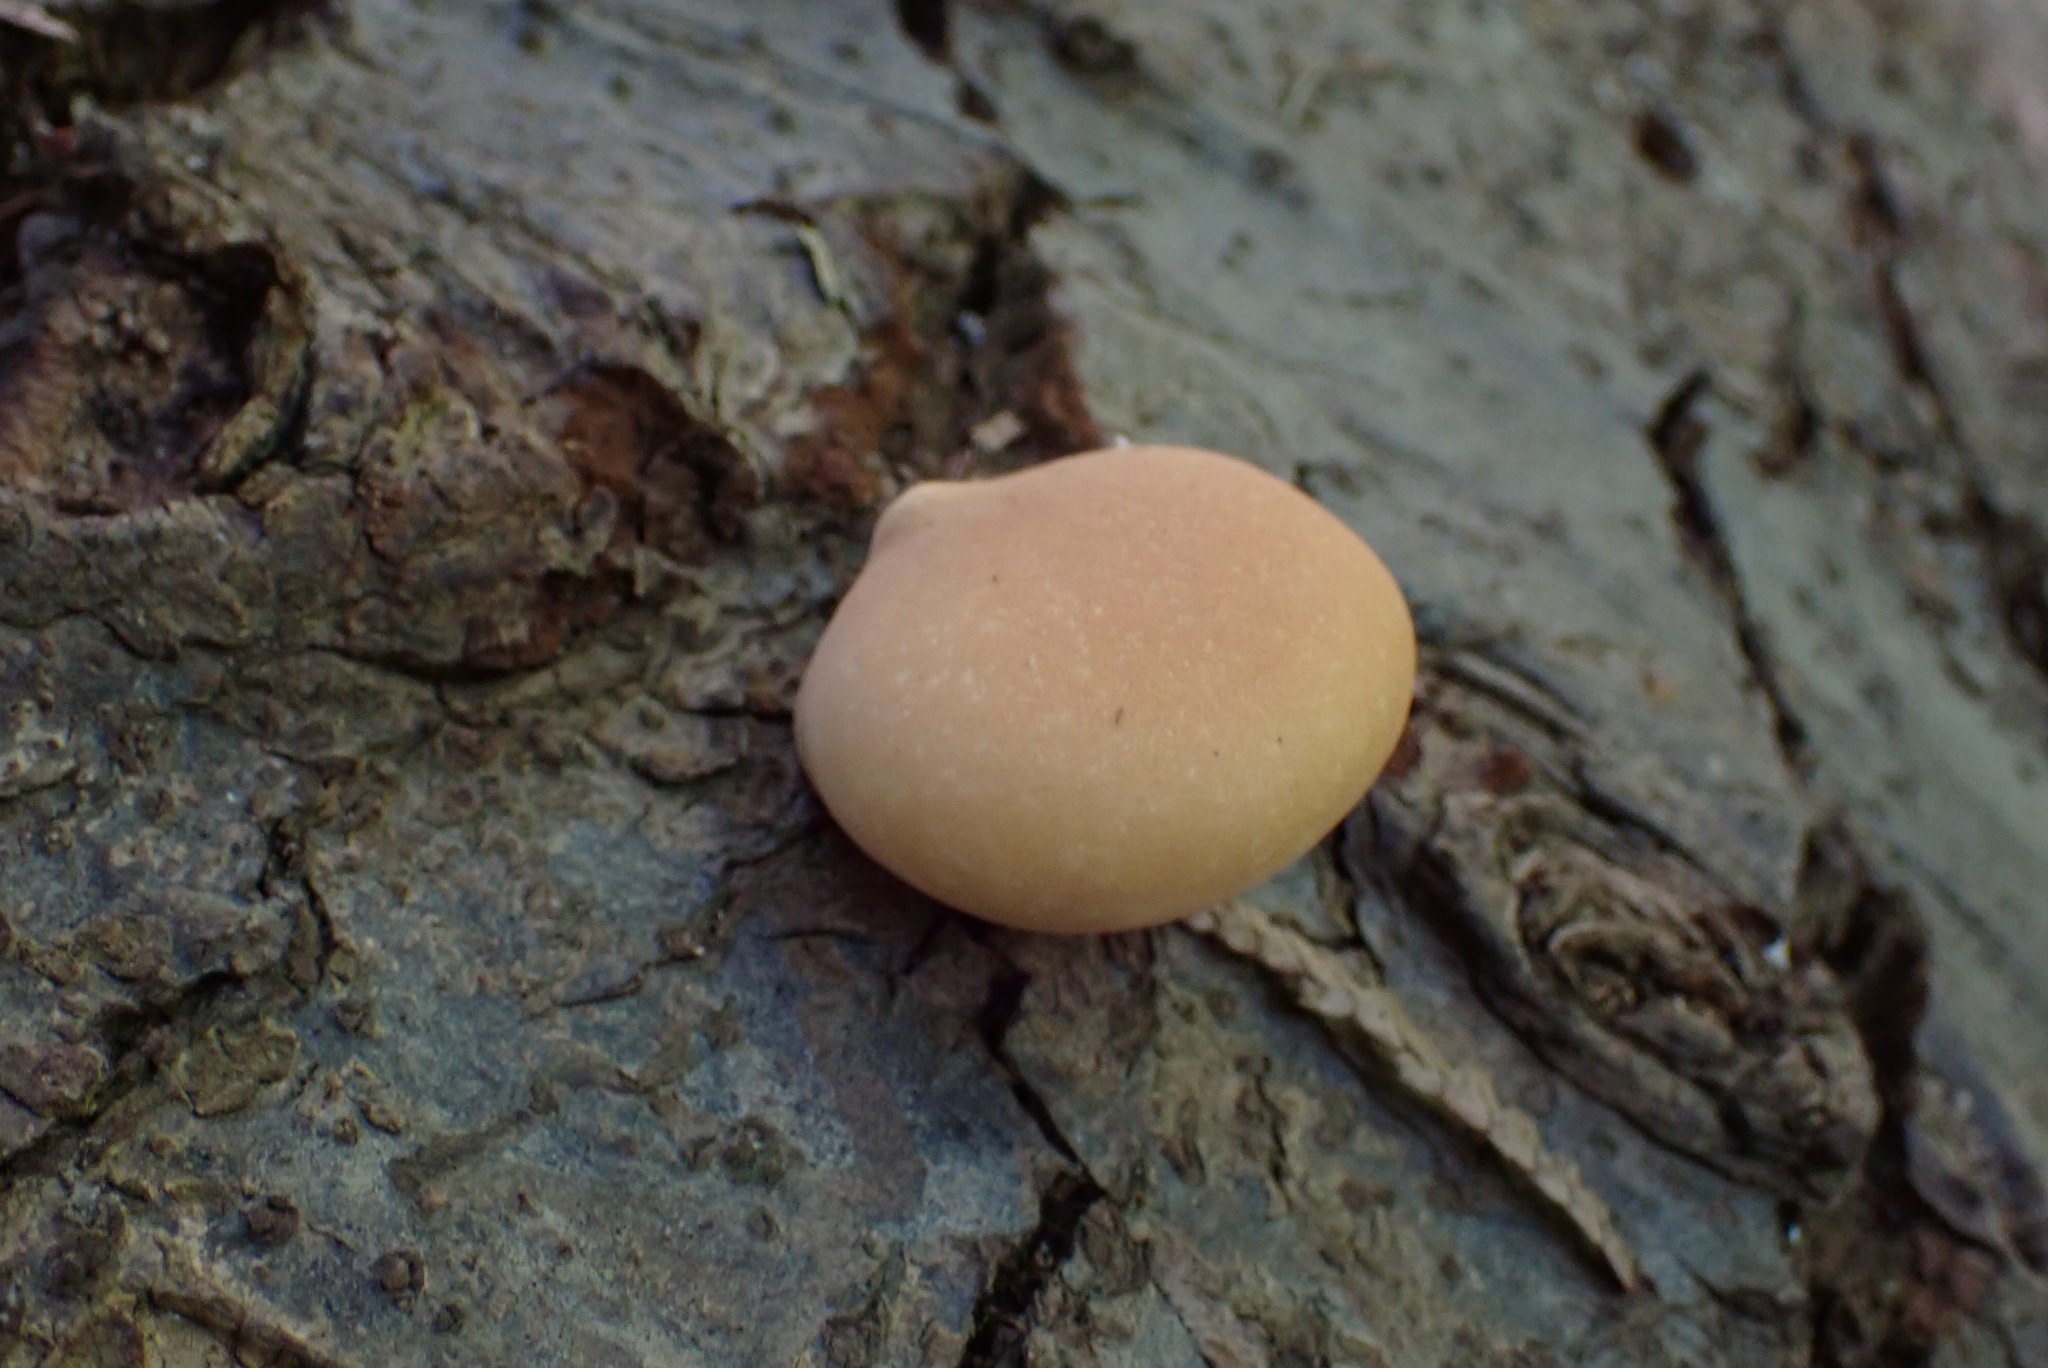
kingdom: Fungi
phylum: Basidiomycota
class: Agaricomycetes
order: Polyporales
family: Polyporaceae
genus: Cryptoporus
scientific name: Cryptoporus volvatus
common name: Veiled polypore
